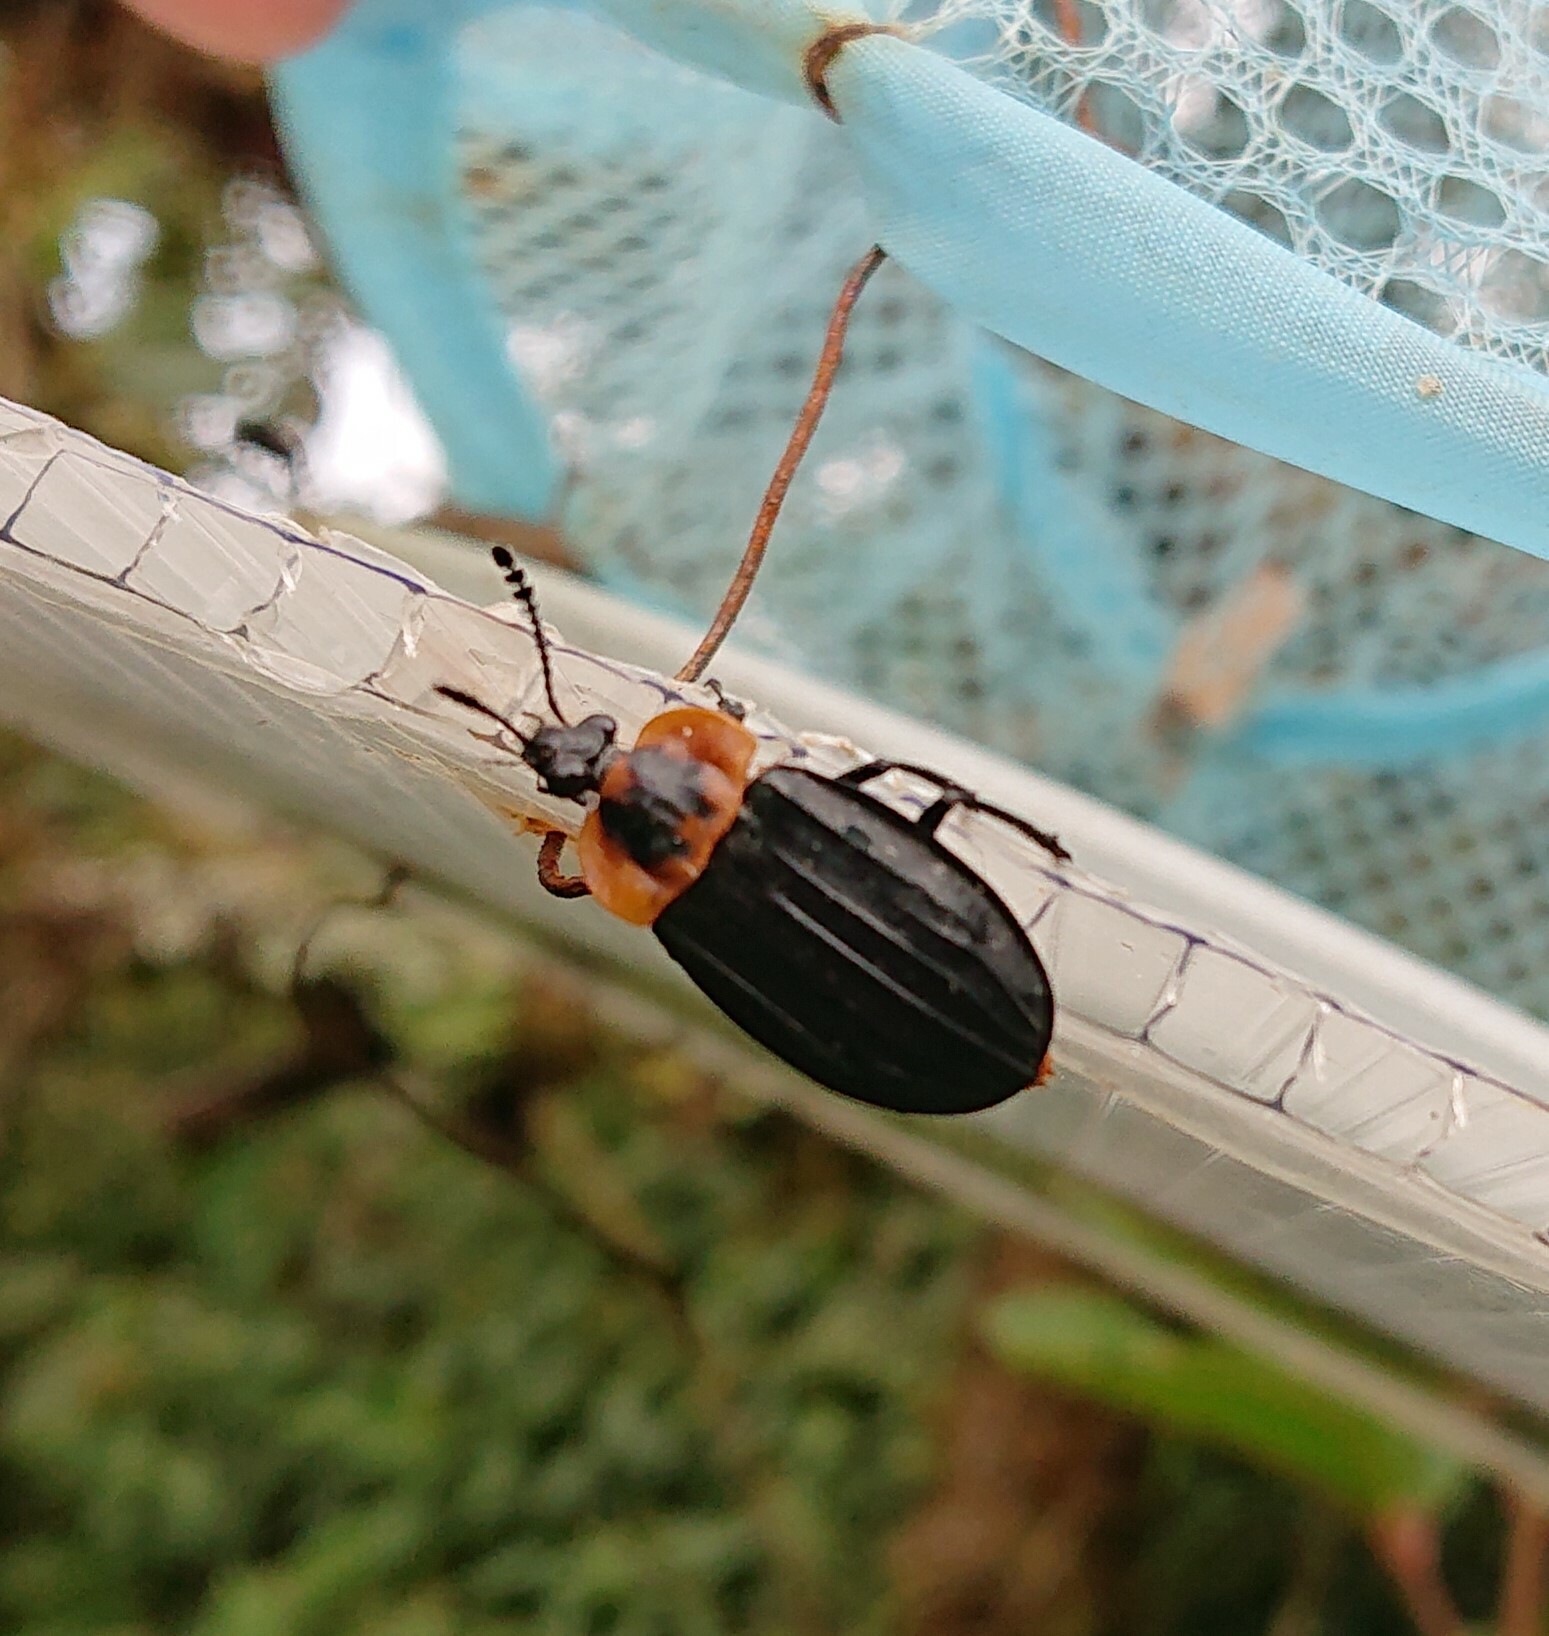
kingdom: Animalia
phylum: Arthropoda
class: Insecta
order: Coleoptera
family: Staphylinidae
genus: Oxelytrum
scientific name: Oxelytrum discicolle
